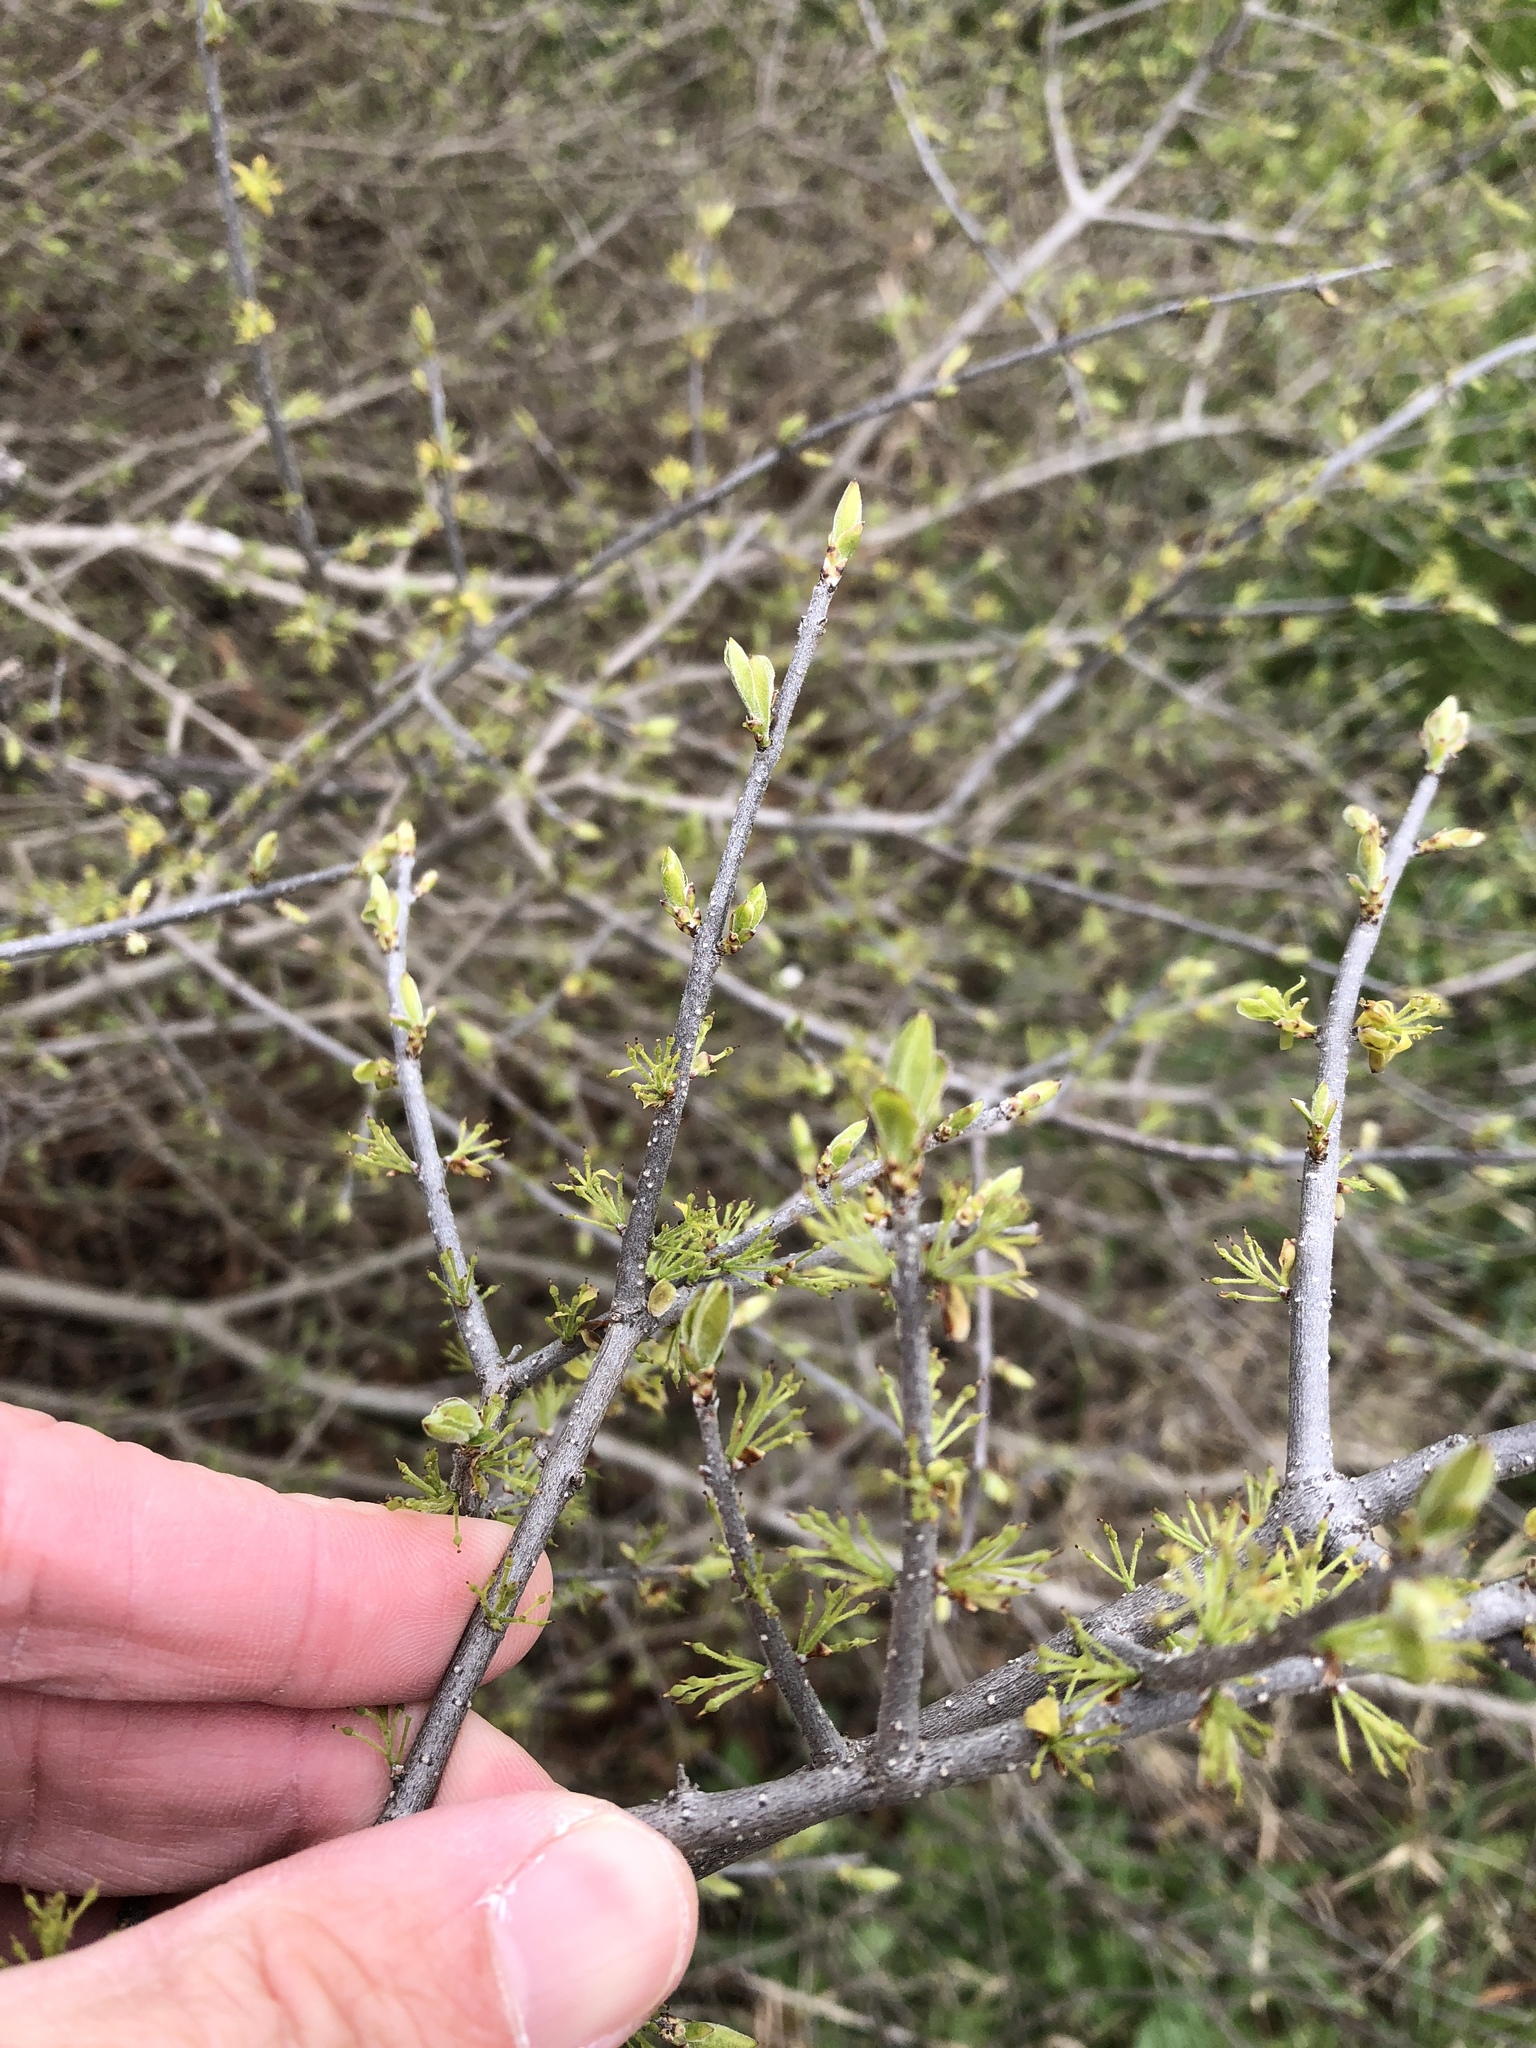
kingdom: Plantae
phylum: Tracheophyta
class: Magnoliopsida
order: Lamiales
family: Oleaceae
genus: Forestiera
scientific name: Forestiera pubescens
